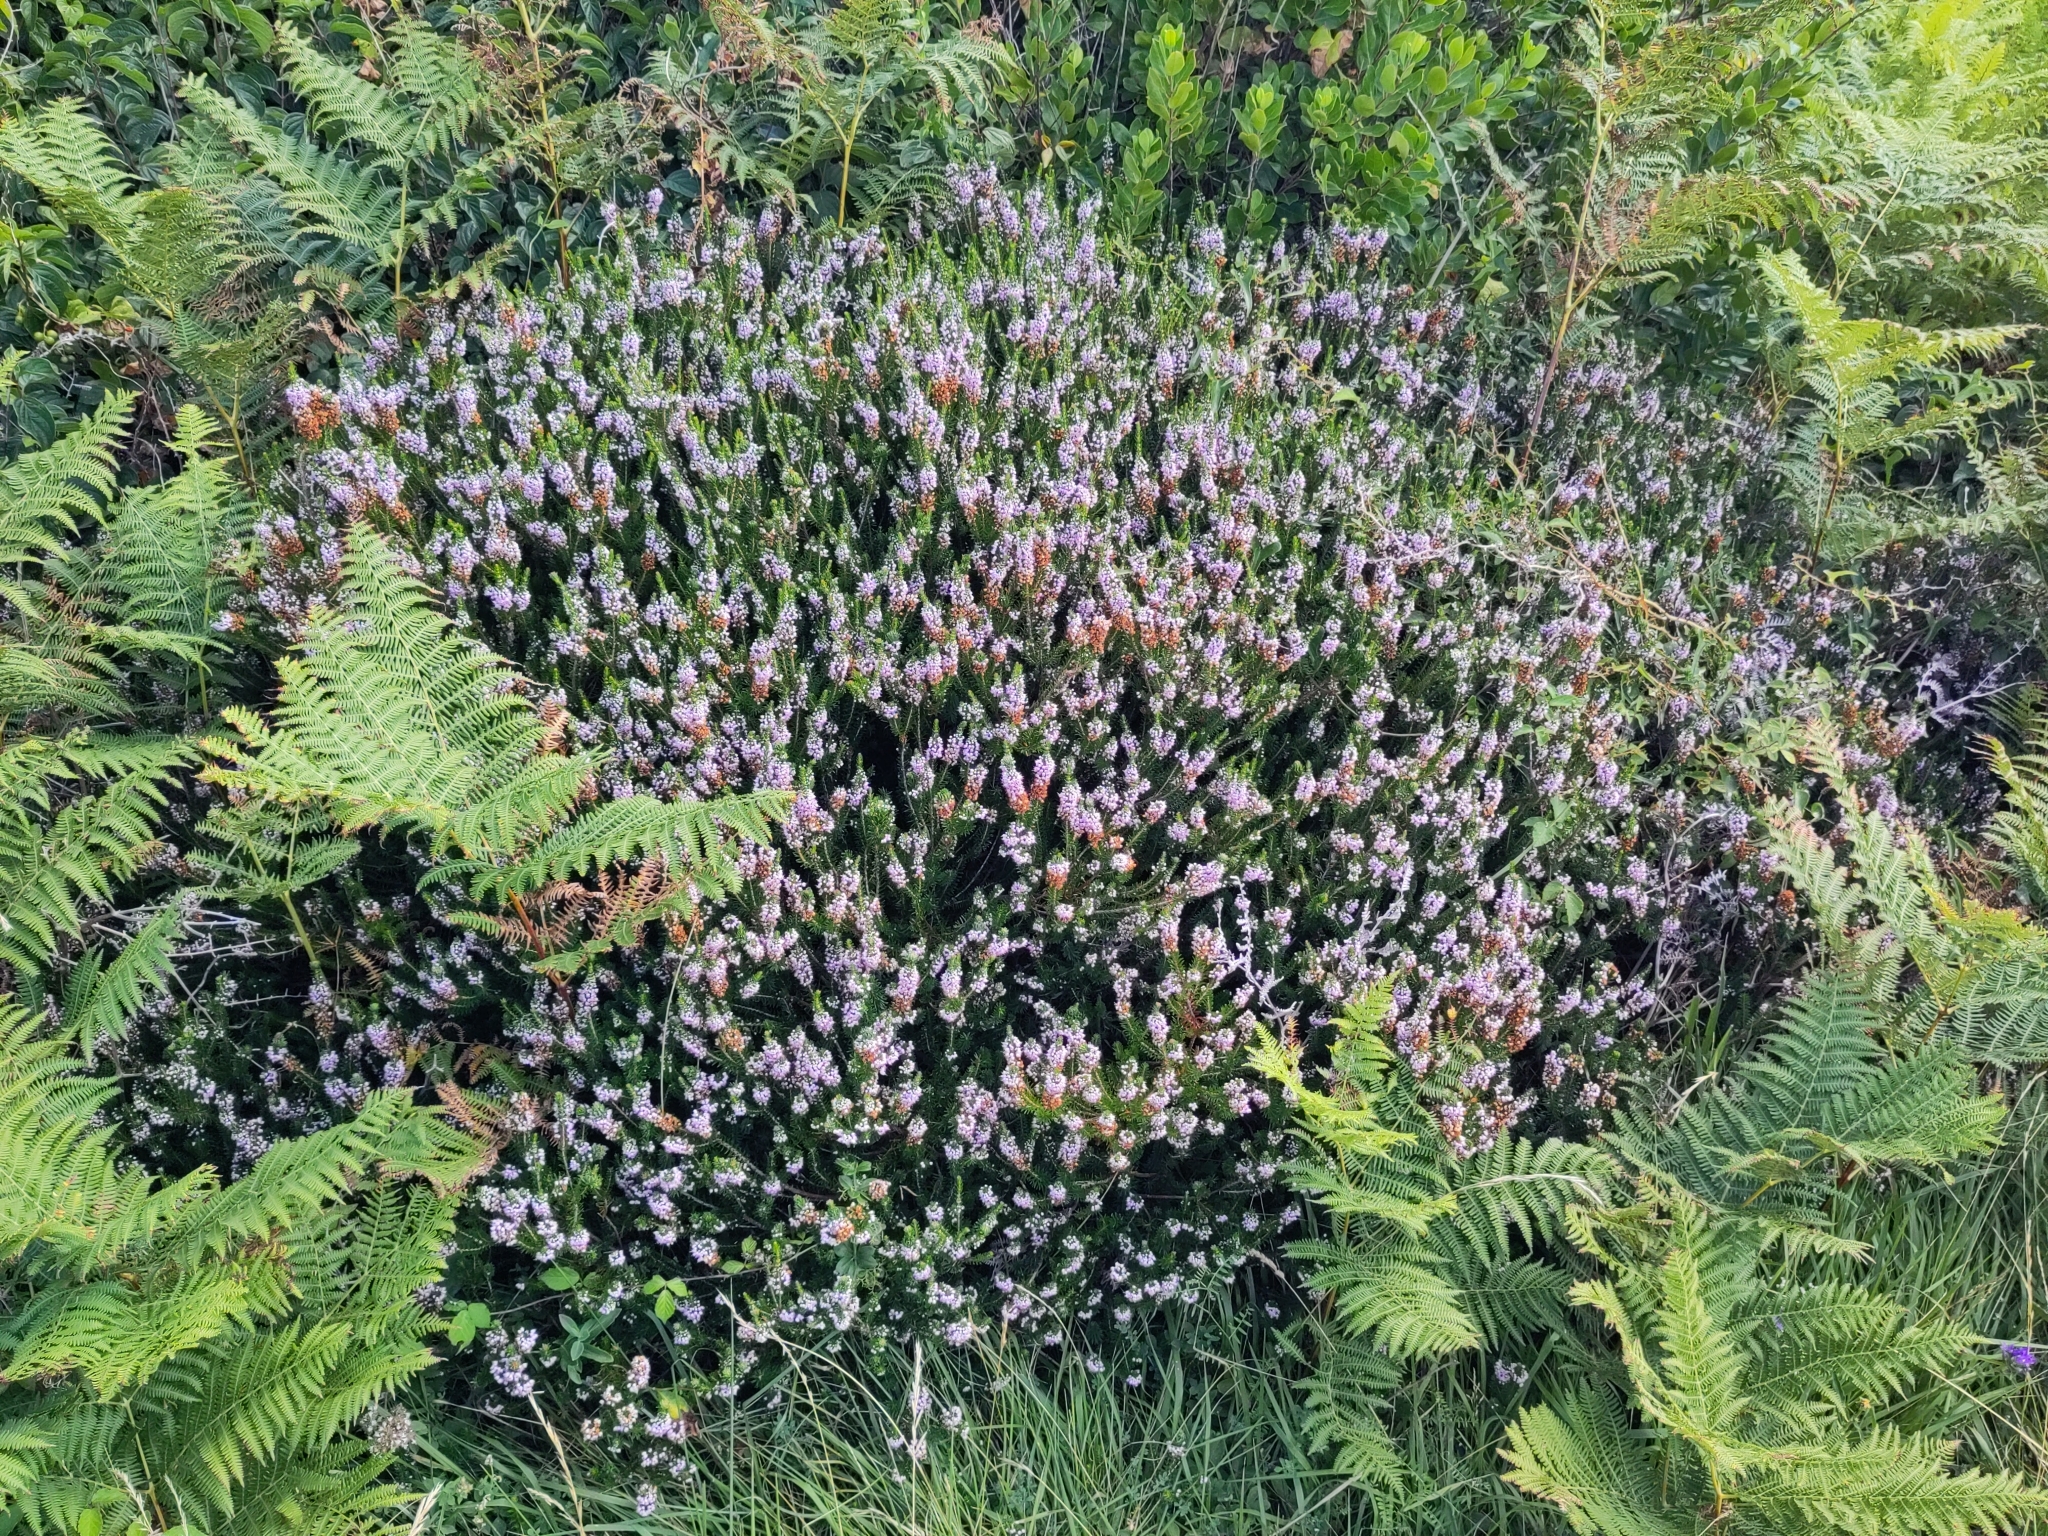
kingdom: Plantae
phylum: Tracheophyta
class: Magnoliopsida
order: Ericales
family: Ericaceae
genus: Erica
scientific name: Erica vagans
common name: Cornish heath
